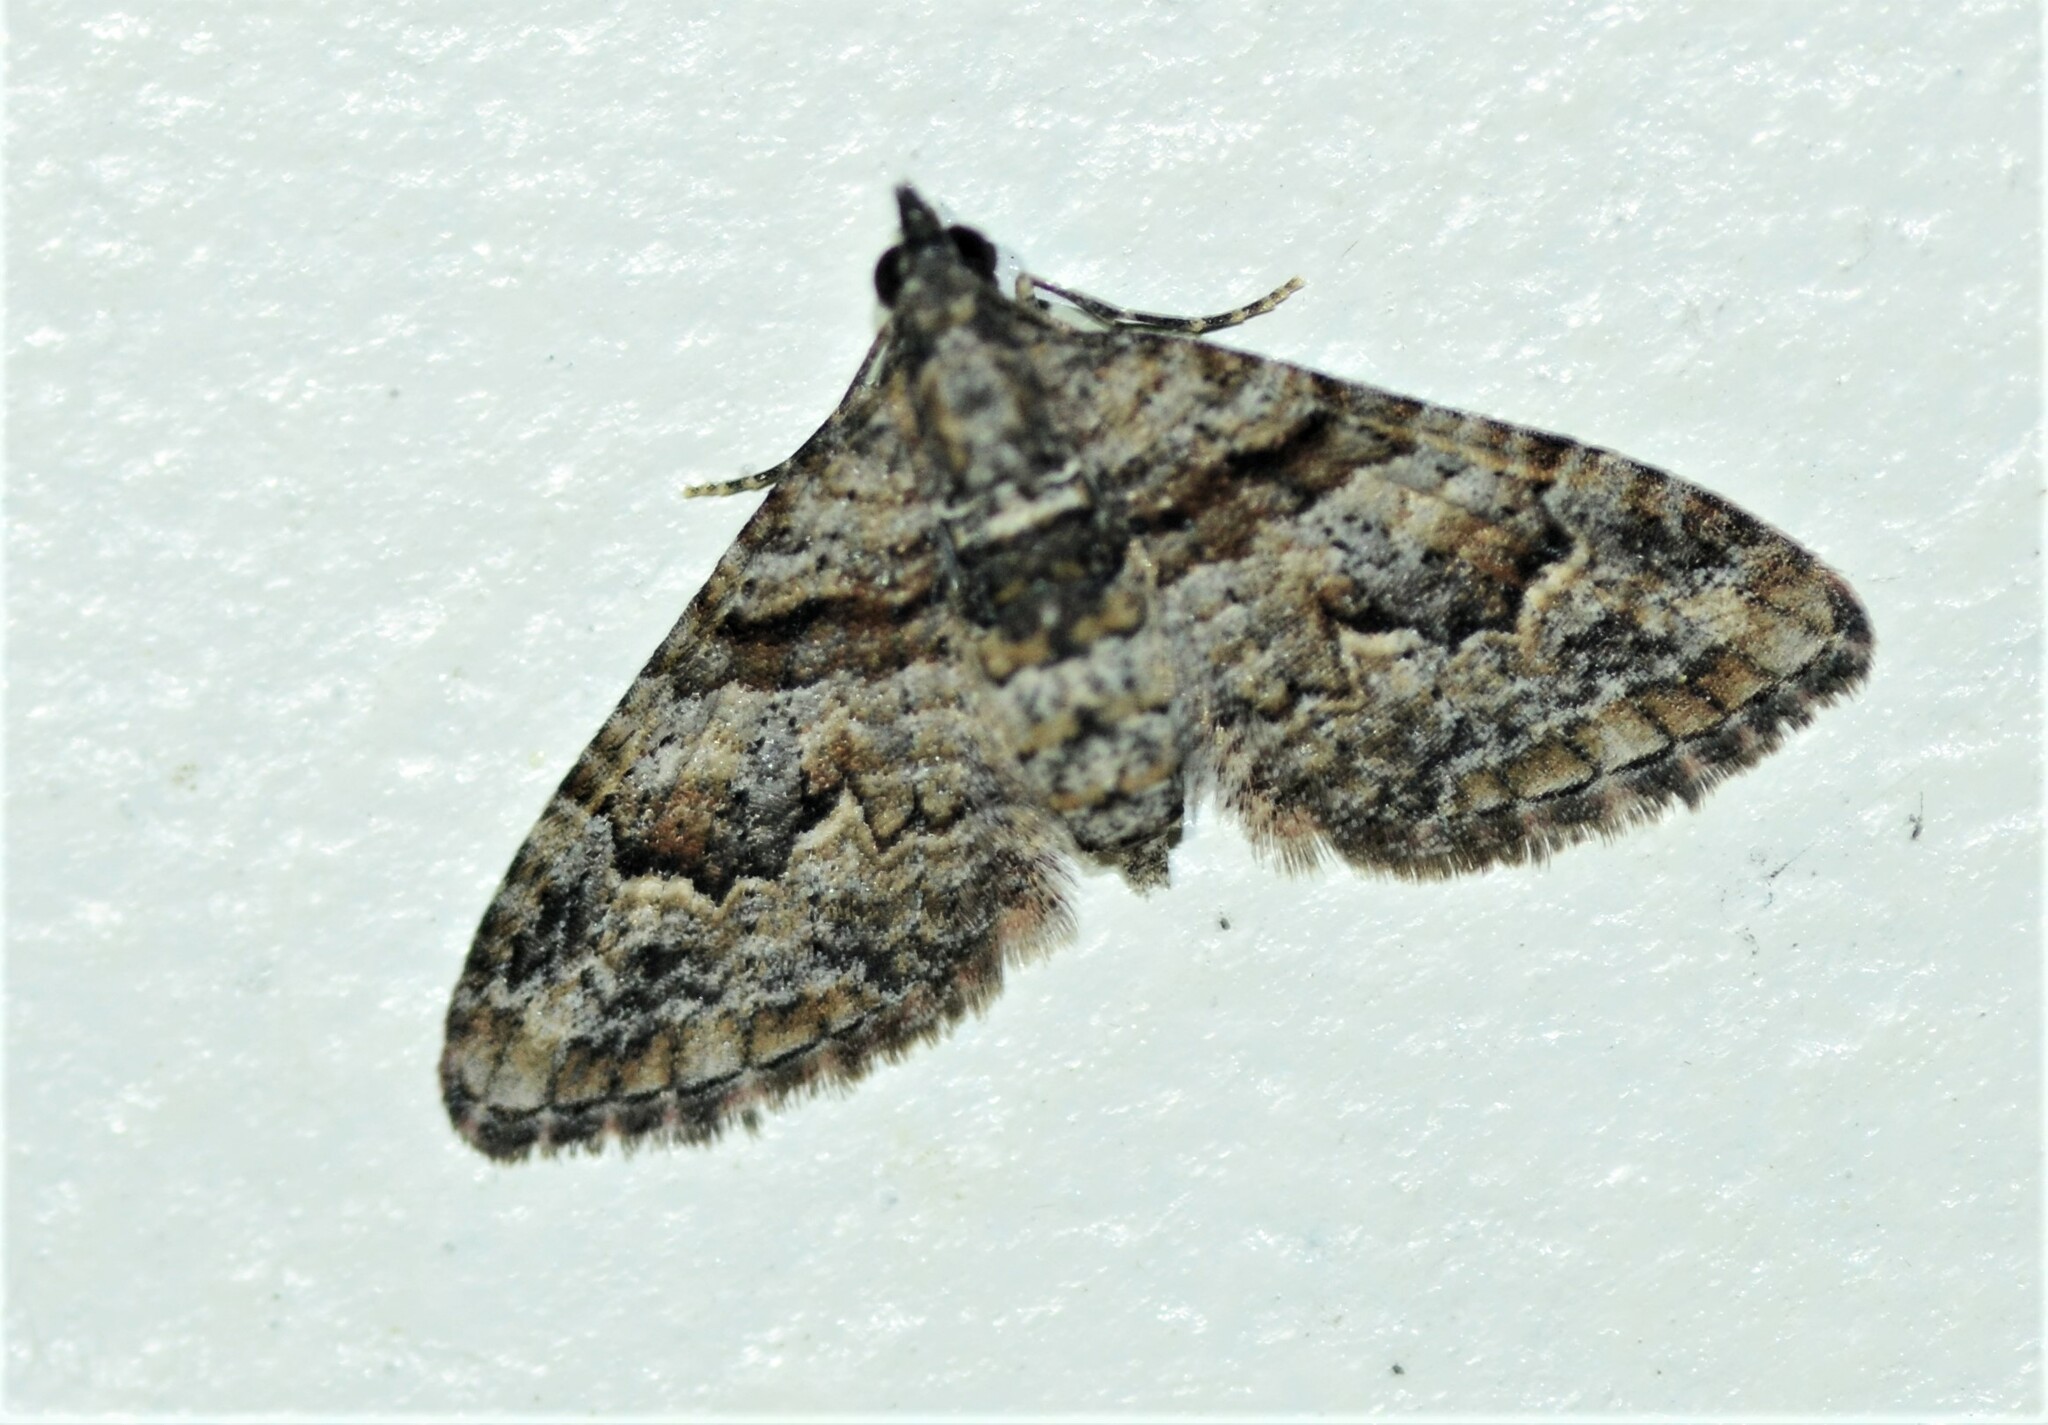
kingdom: Animalia
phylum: Arthropoda
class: Insecta
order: Lepidoptera
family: Geometridae
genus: Phrissogonus
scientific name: Phrissogonus laticostata
